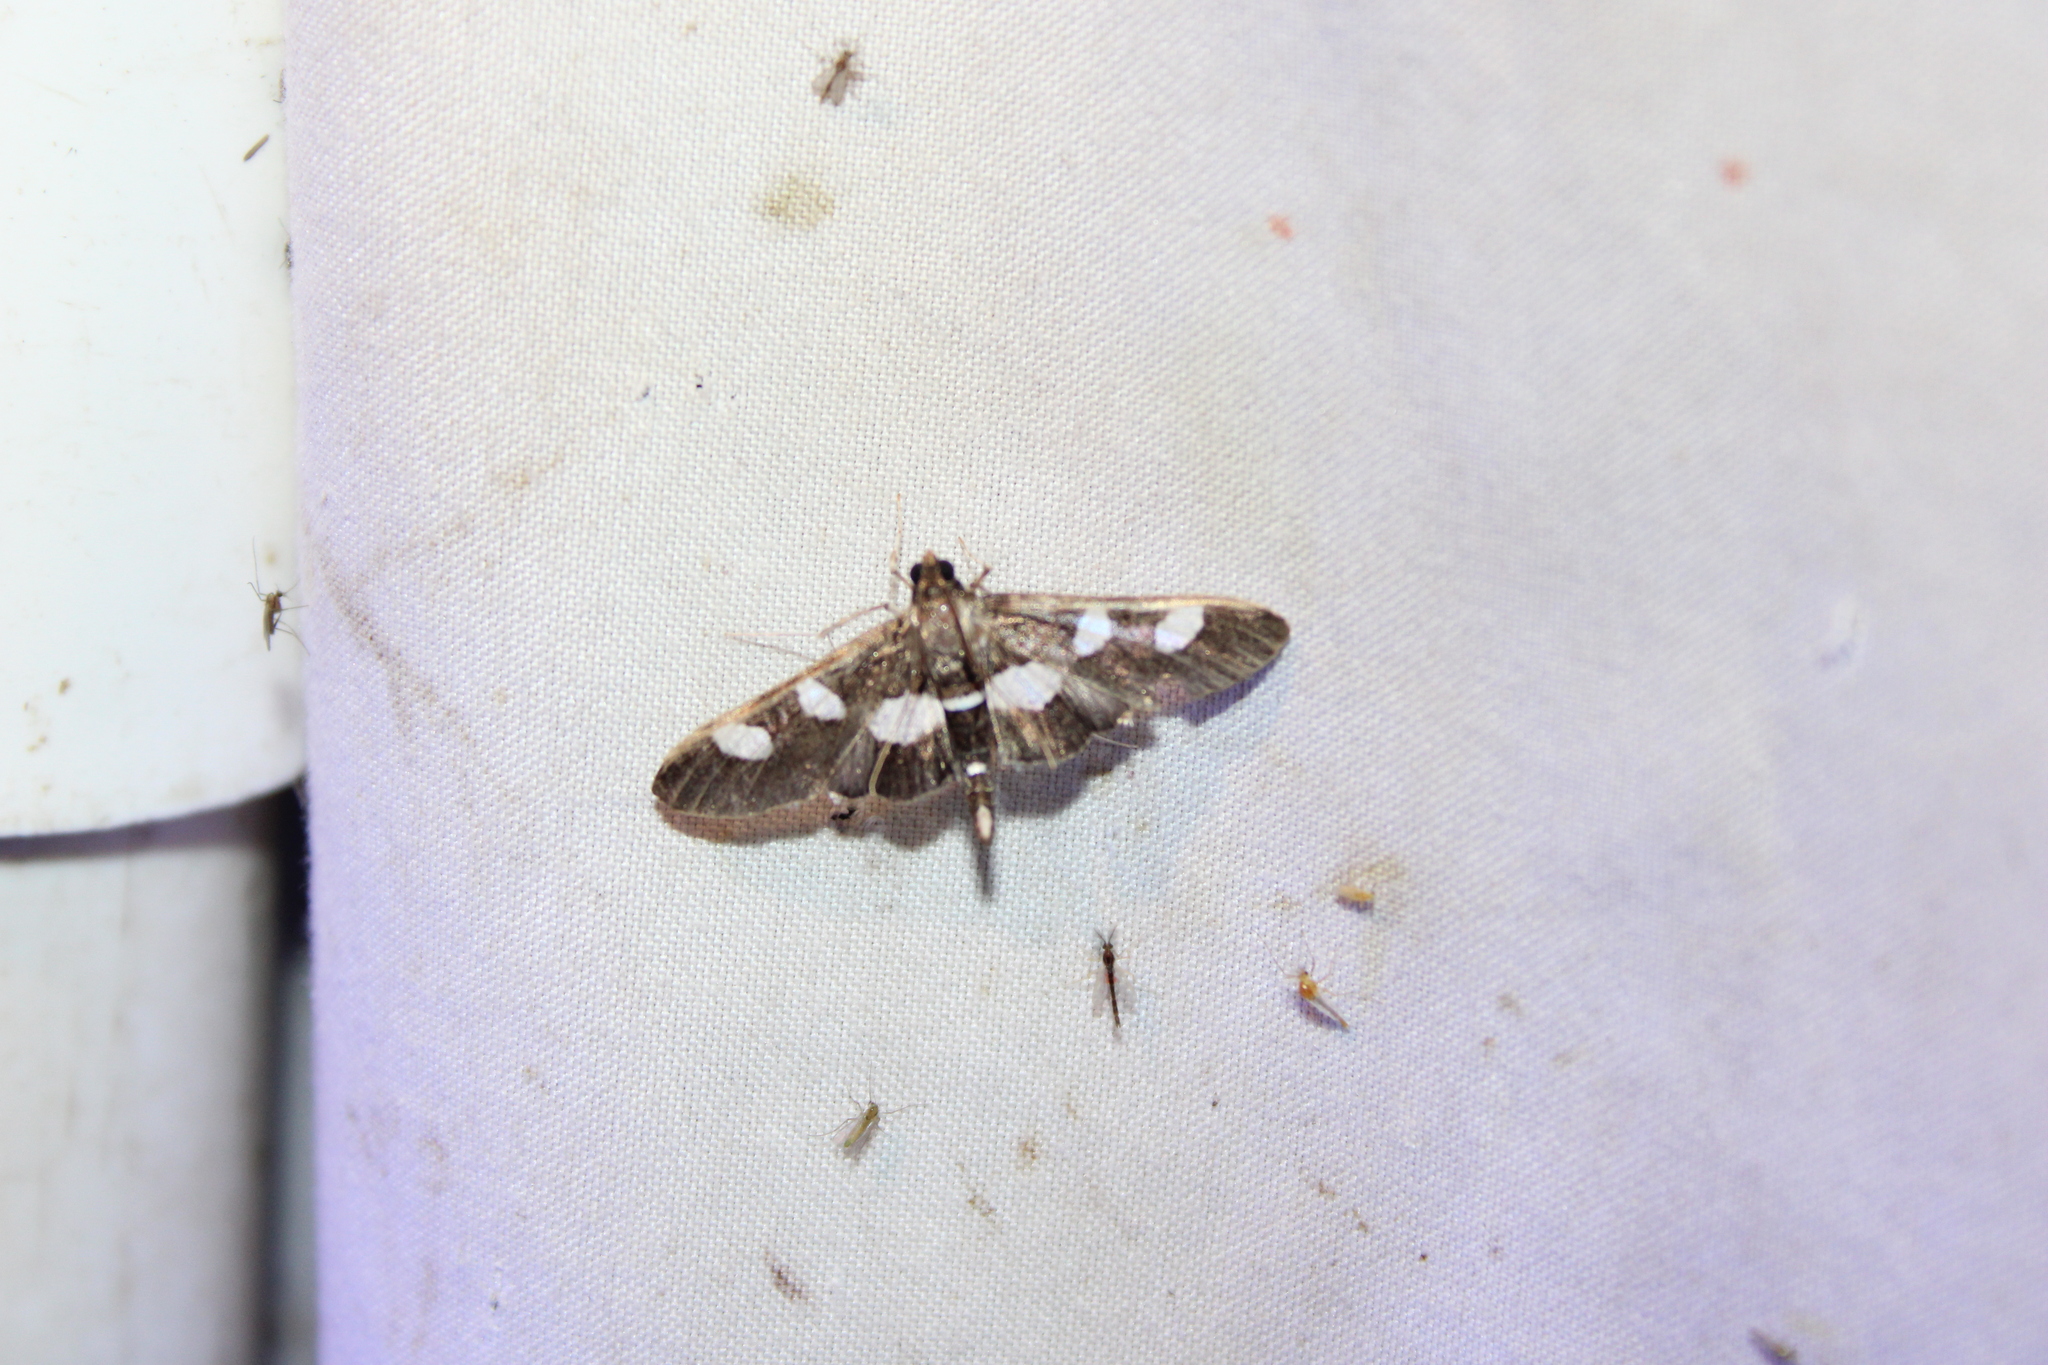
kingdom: Animalia
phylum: Arthropoda
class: Insecta
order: Lepidoptera
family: Crambidae
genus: Desmia
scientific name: Desmia
